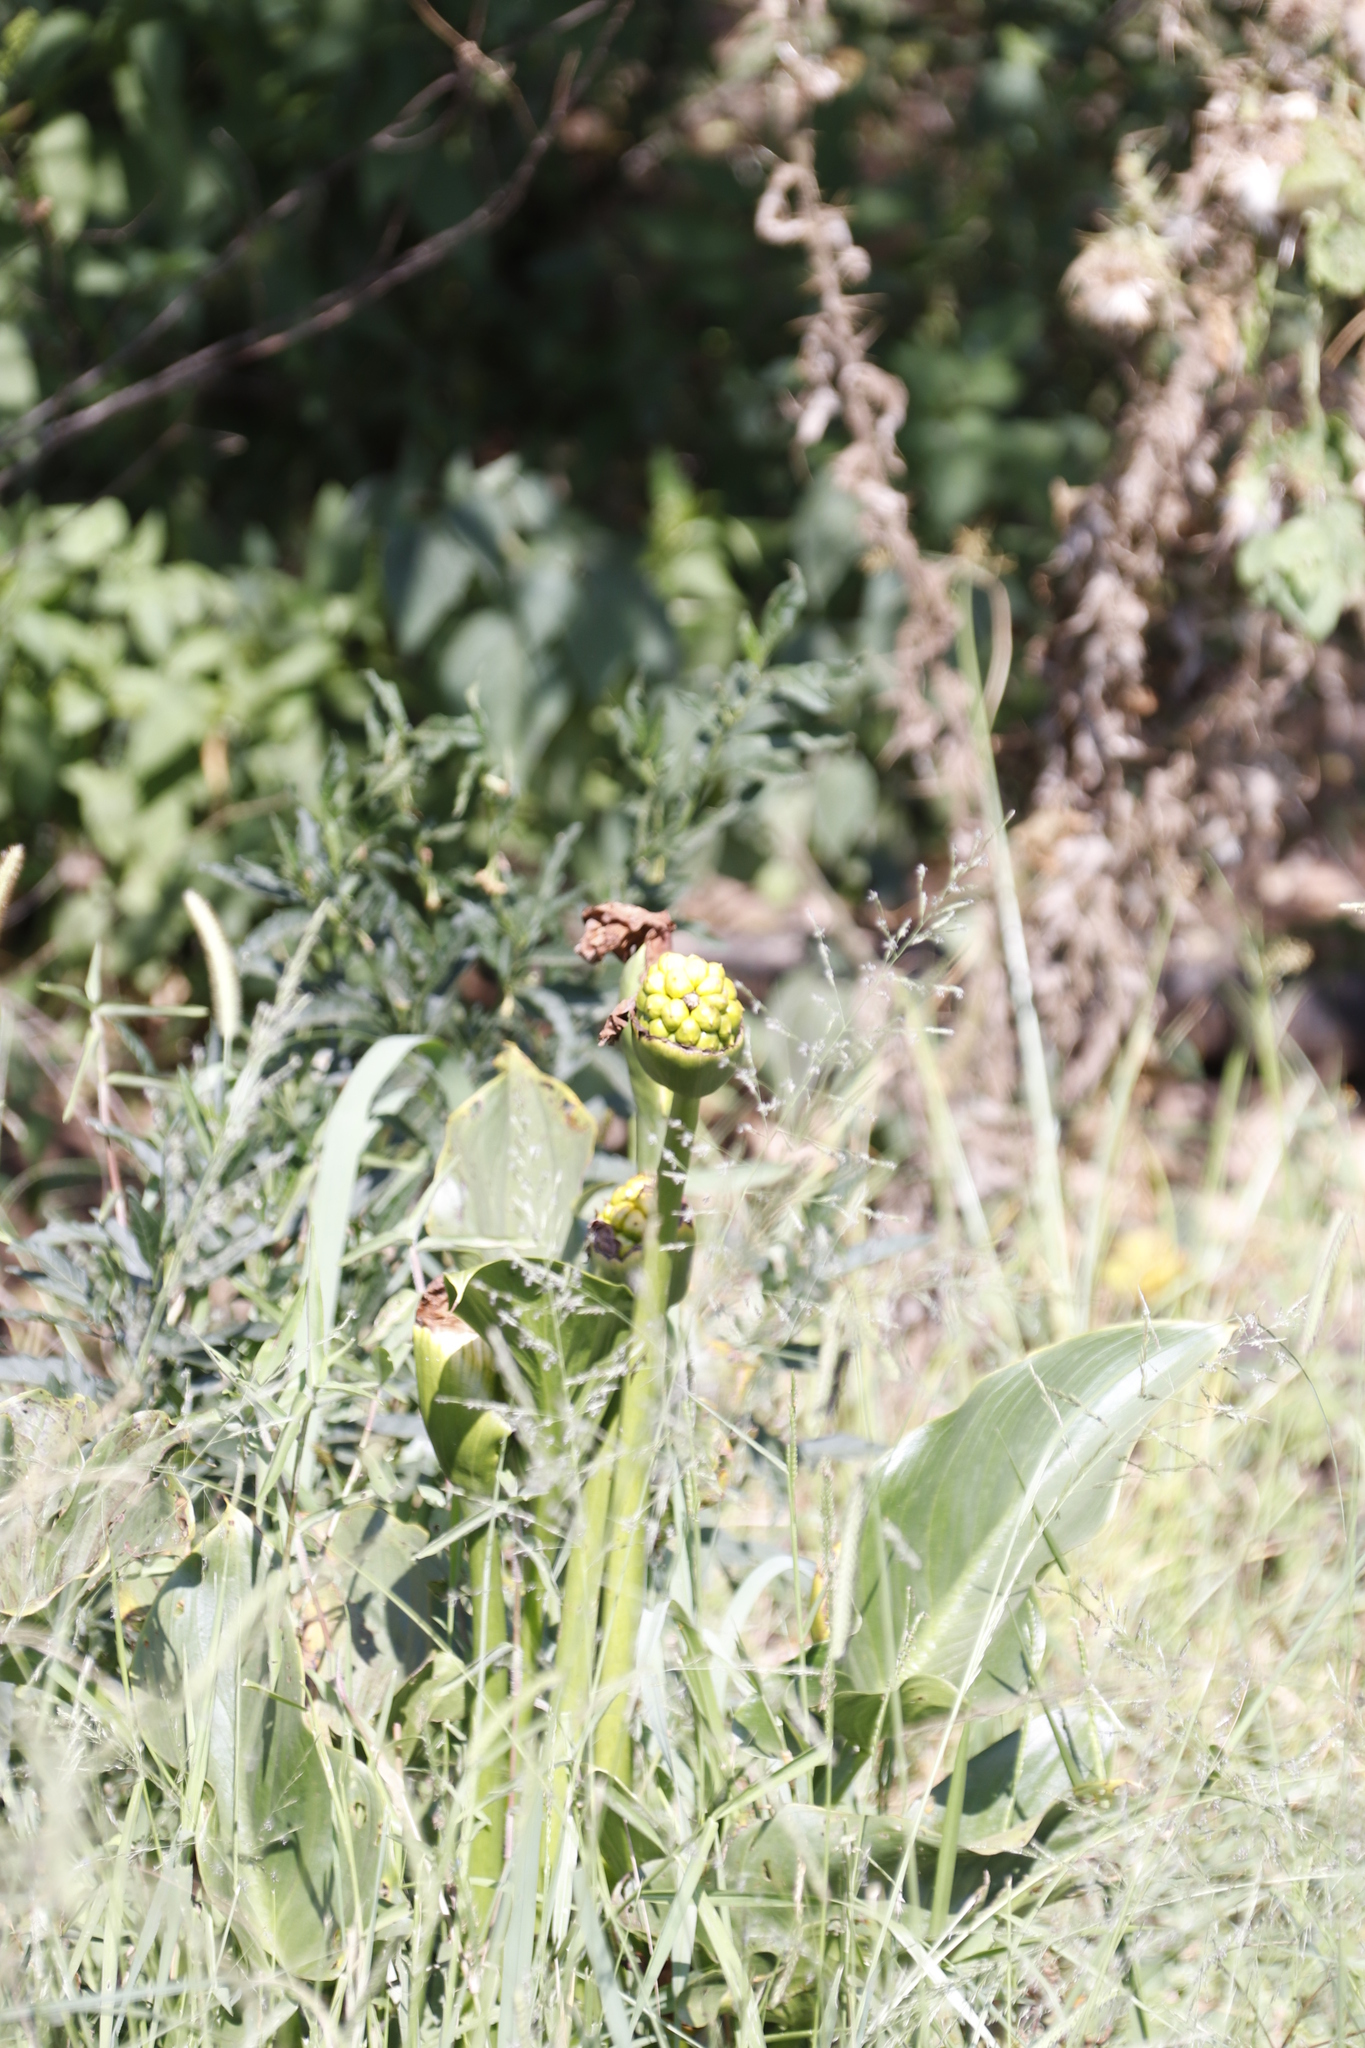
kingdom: Plantae
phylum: Tracheophyta
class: Liliopsida
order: Alismatales
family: Araceae
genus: Zantedeschia
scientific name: Zantedeschia aethiopica
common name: Altar-lily
